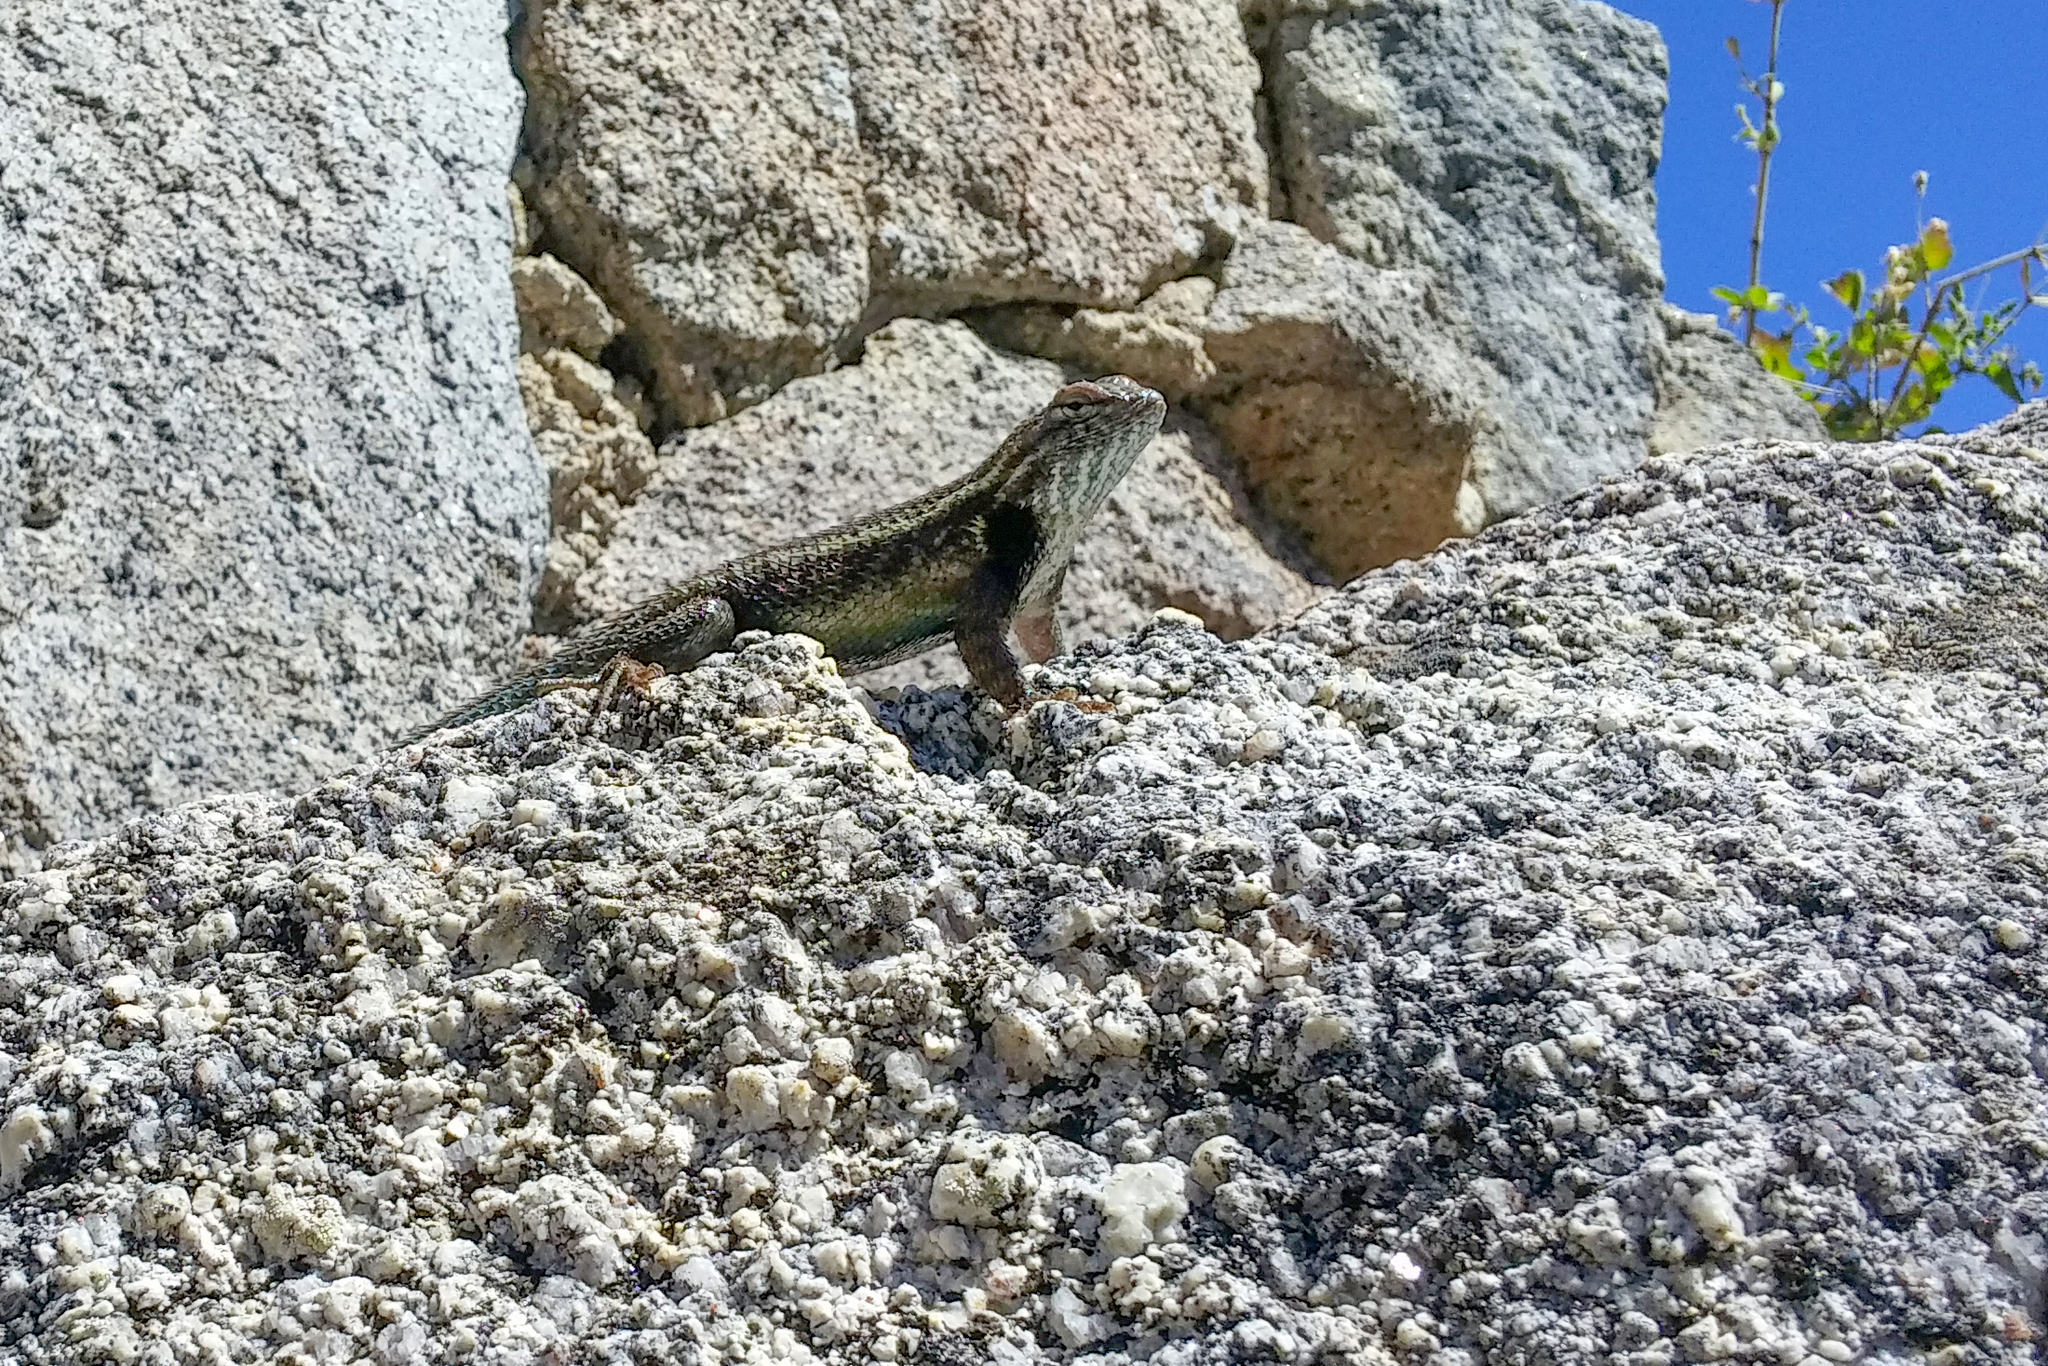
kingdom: Animalia
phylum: Chordata
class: Squamata
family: Phrynosomatidae
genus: Sceloporus
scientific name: Sceloporus licki
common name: Cape arboreal spiny lizard
